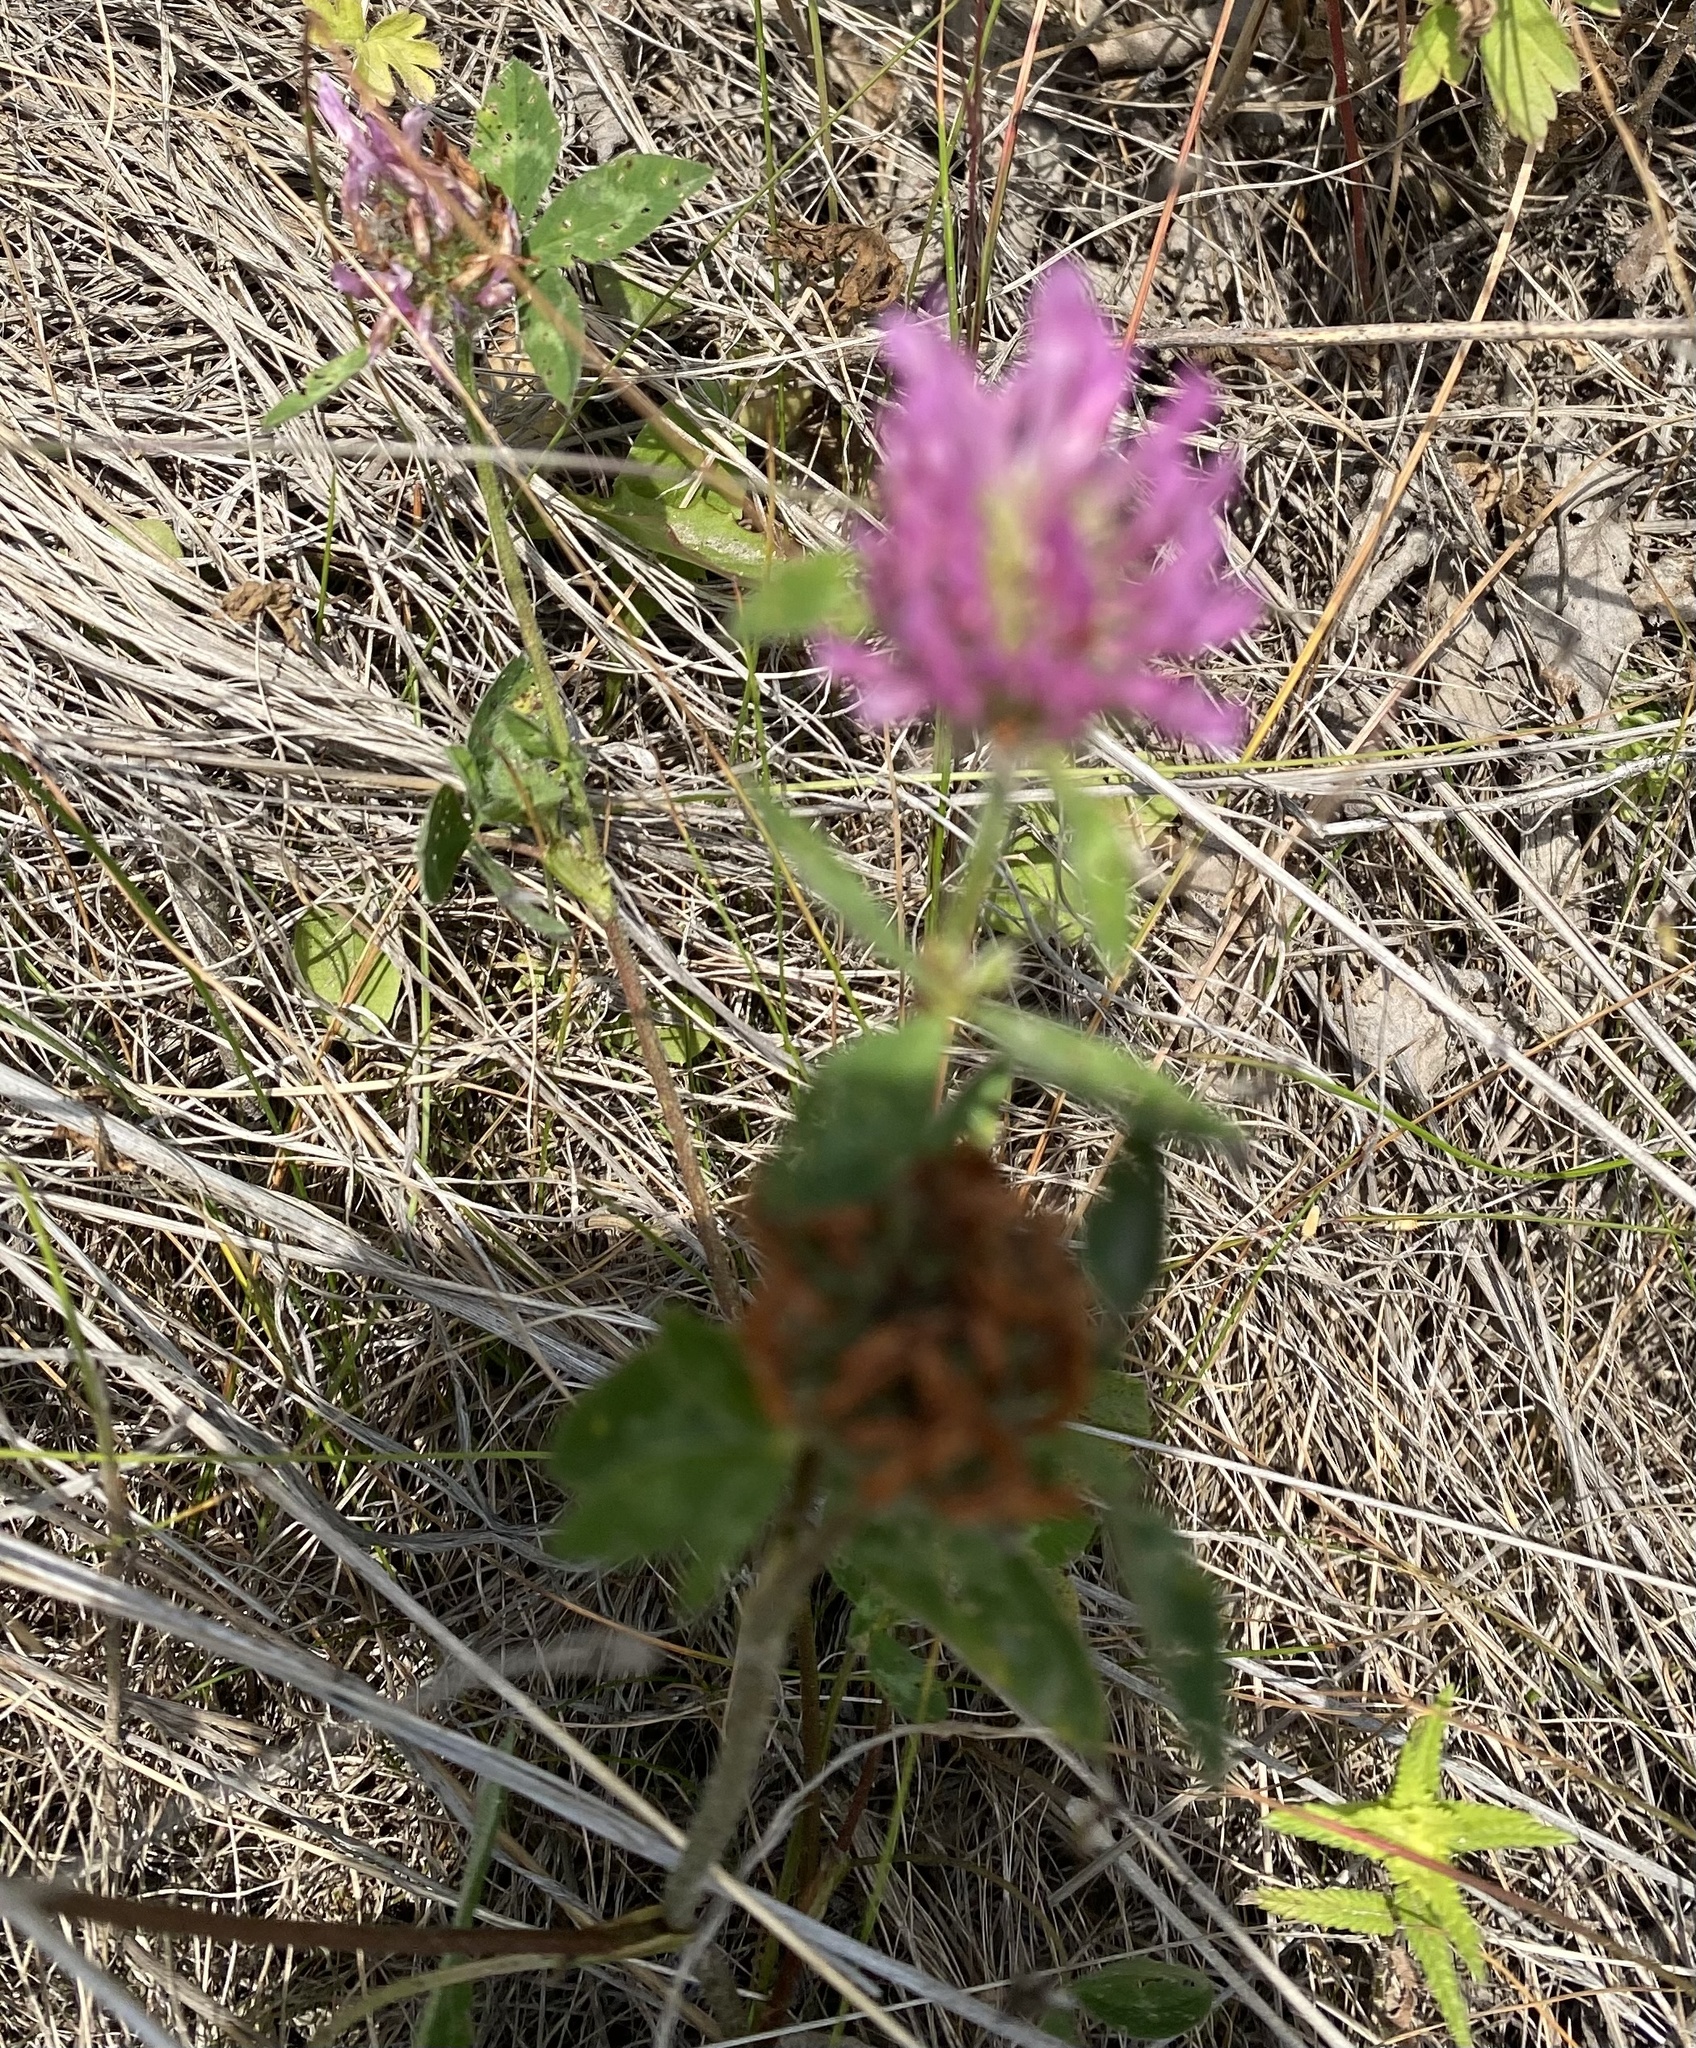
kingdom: Plantae
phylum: Tracheophyta
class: Magnoliopsida
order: Fabales
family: Fabaceae
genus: Trifolium
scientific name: Trifolium pratense
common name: Red clover
